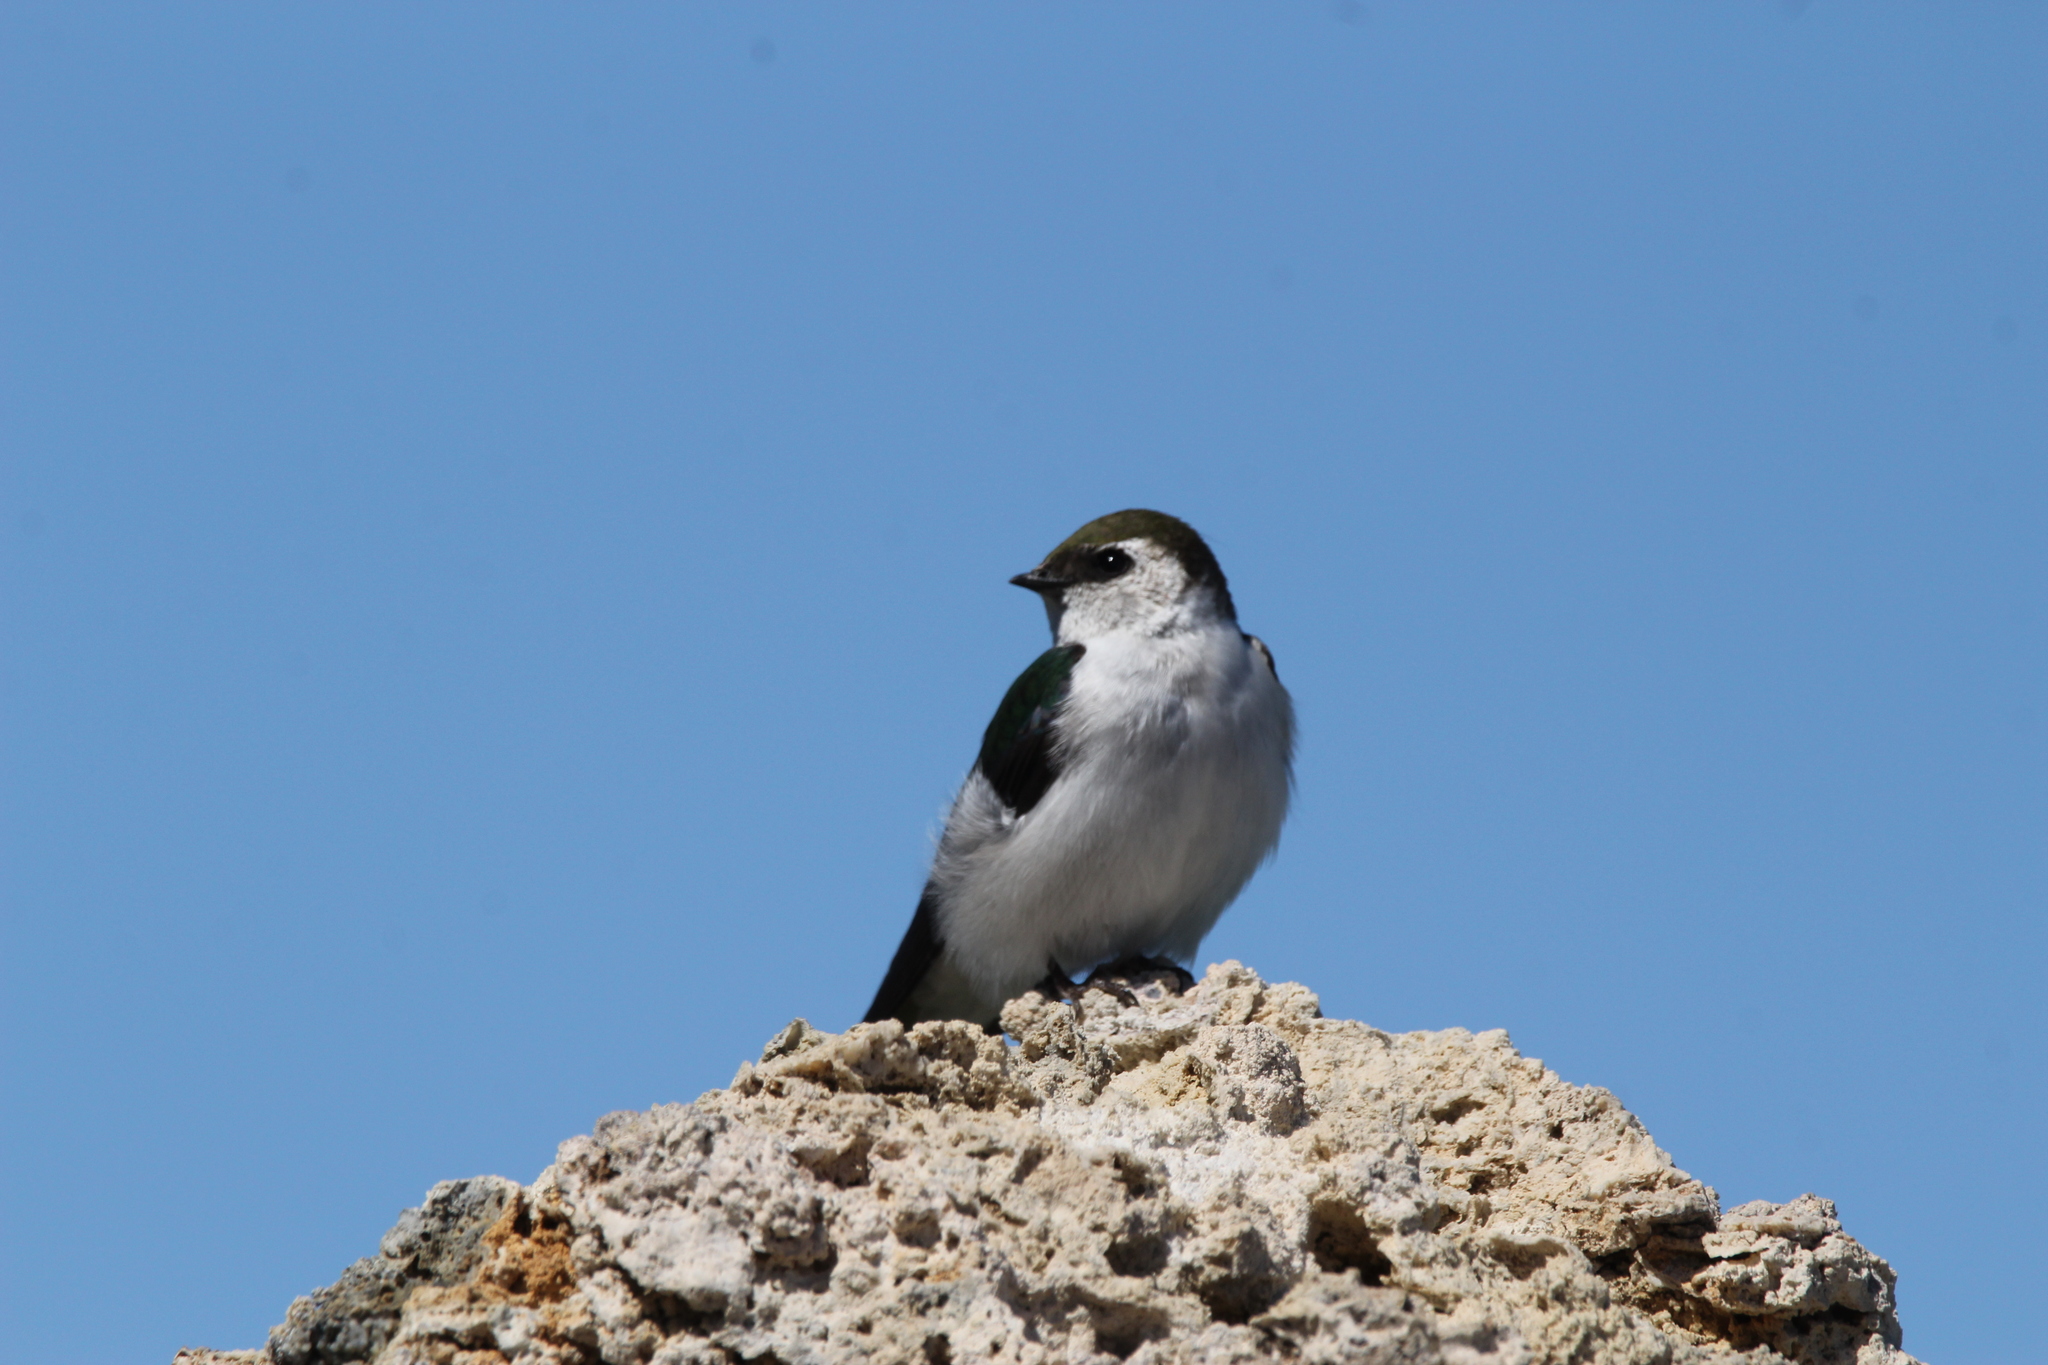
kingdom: Animalia
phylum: Chordata
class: Aves
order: Passeriformes
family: Hirundinidae
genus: Tachycineta
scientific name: Tachycineta thalassina
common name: Violet-green swallow
